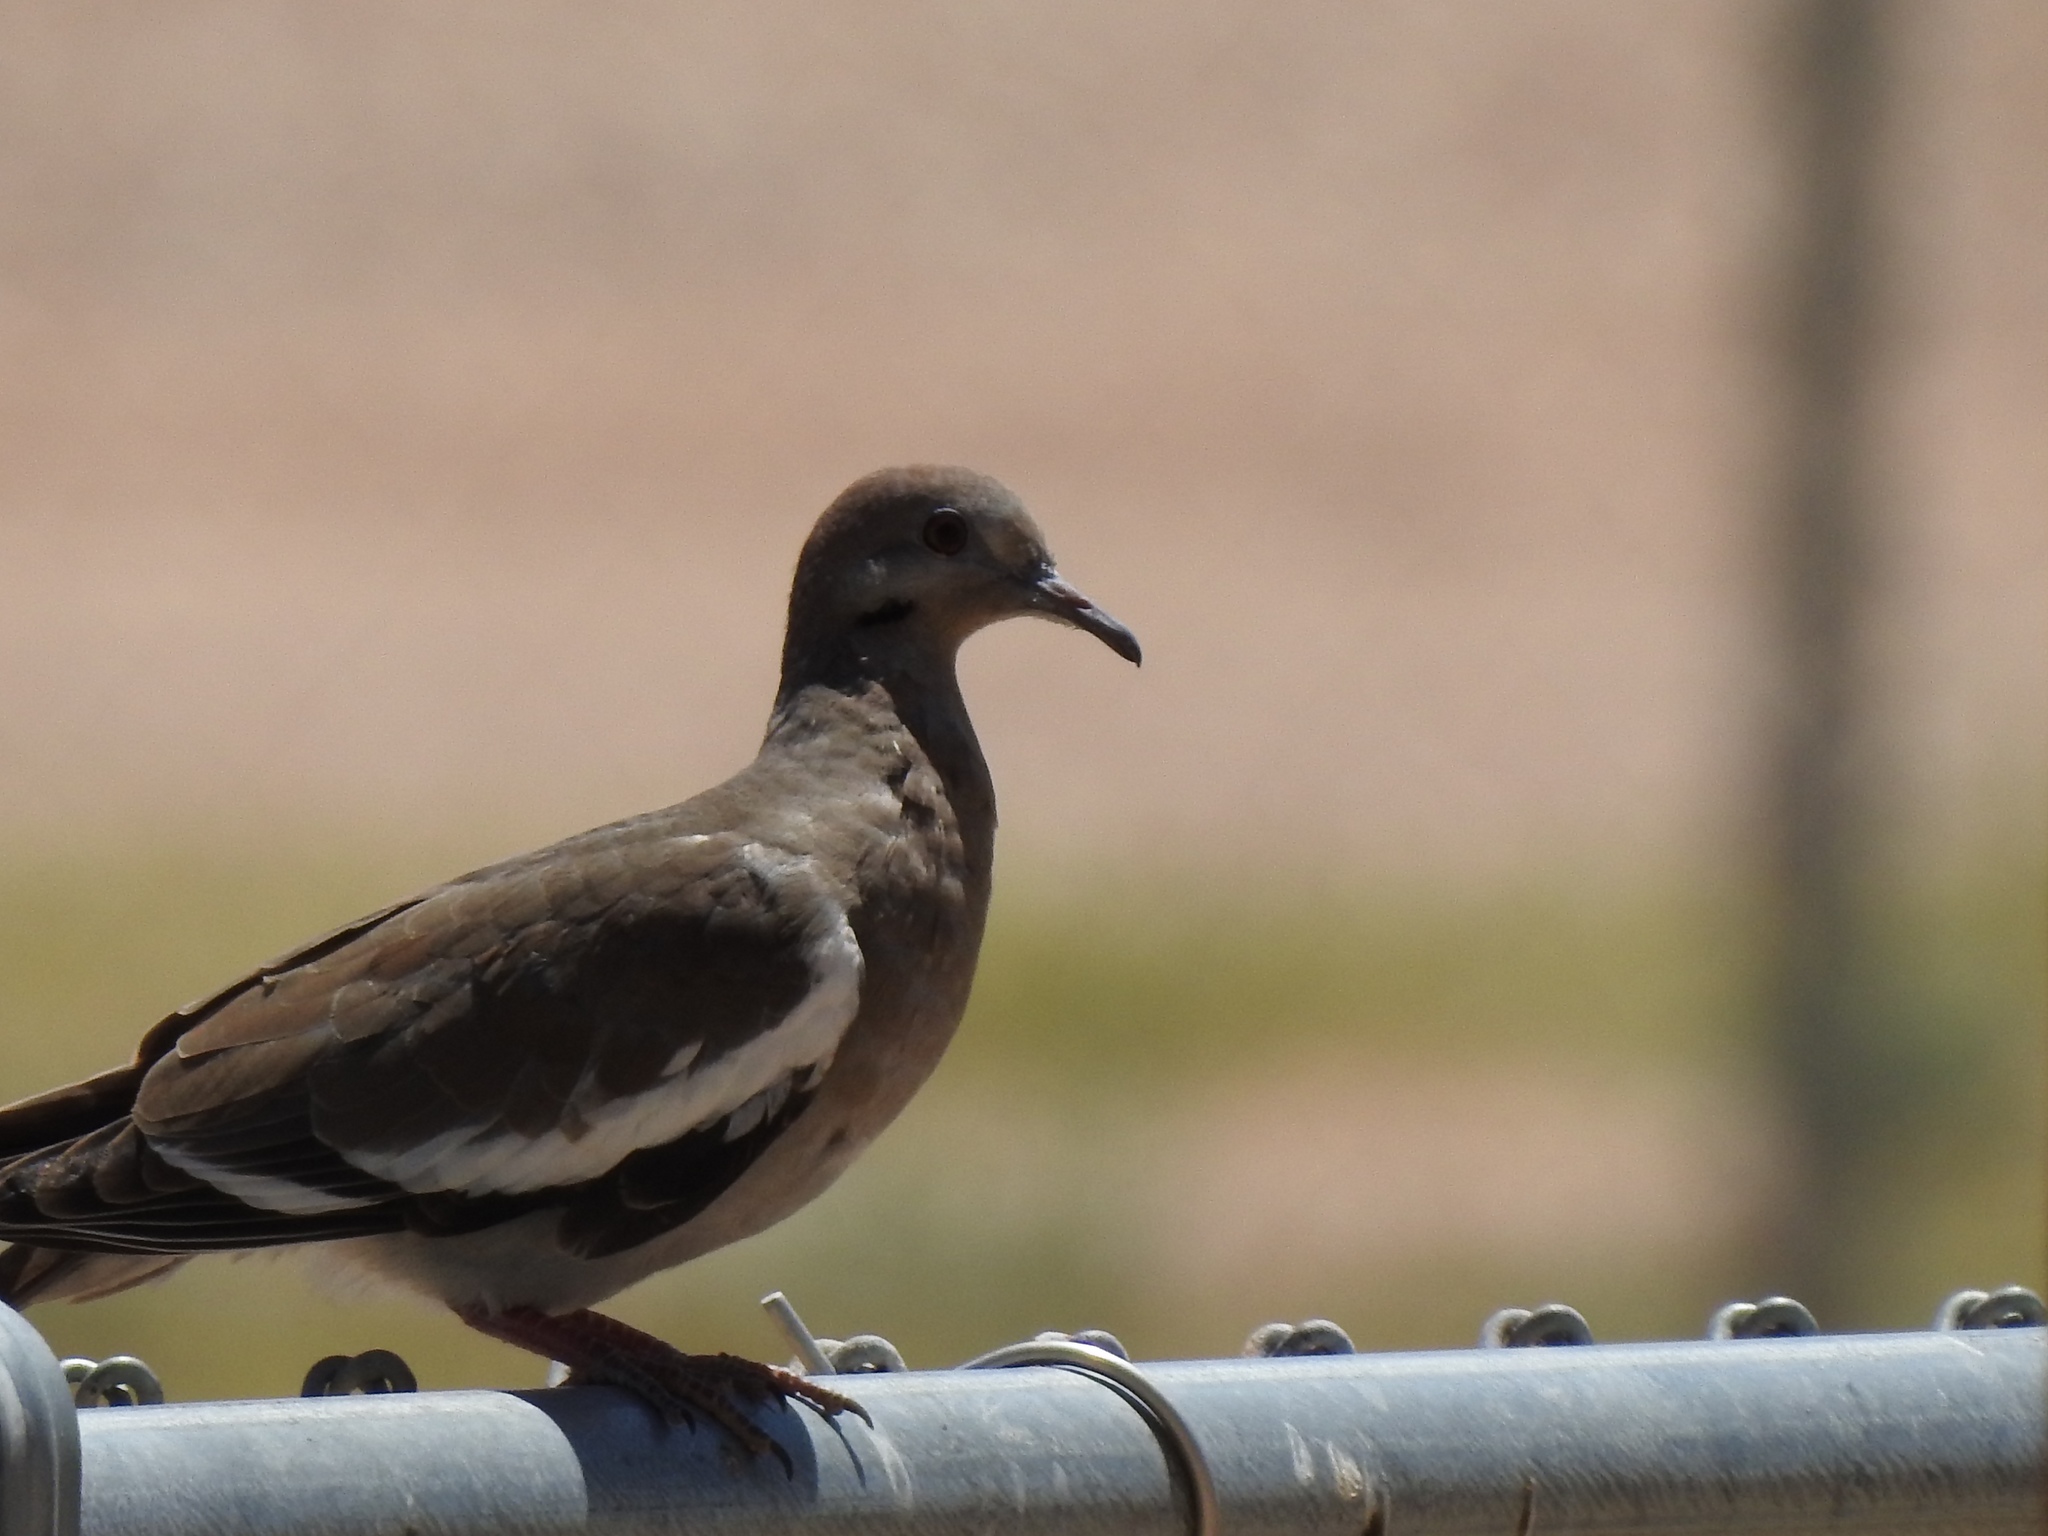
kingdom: Animalia
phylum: Chordata
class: Aves
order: Columbiformes
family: Columbidae
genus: Zenaida
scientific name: Zenaida asiatica
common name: White-winged dove
